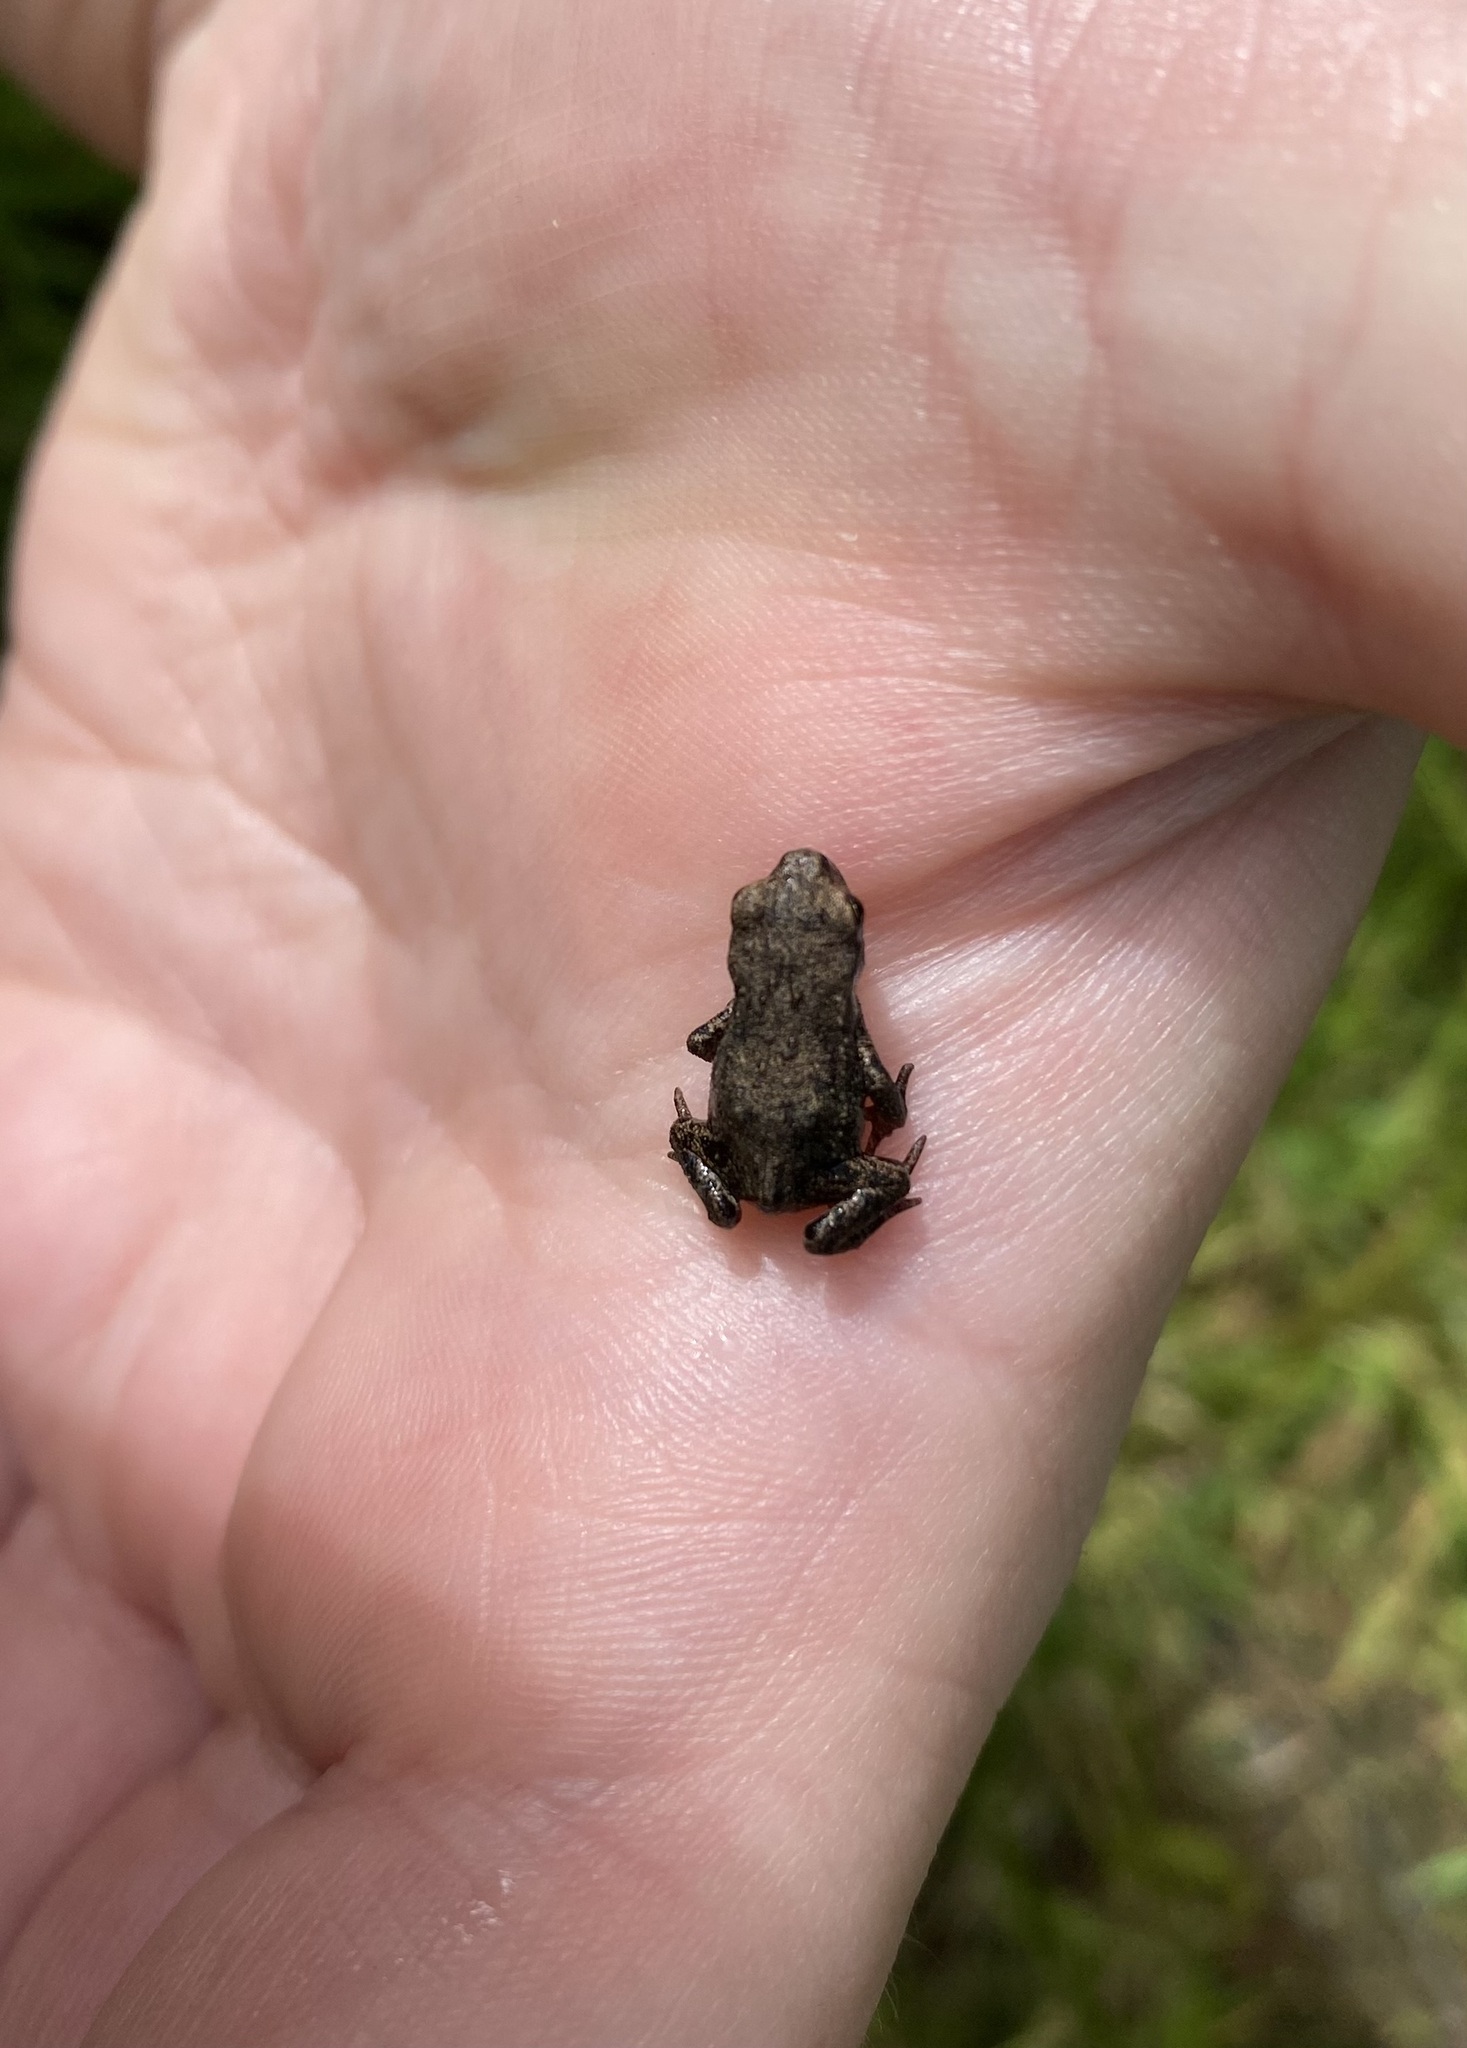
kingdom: Animalia
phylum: Chordata
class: Amphibia
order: Anura
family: Bufonidae
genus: Bufo
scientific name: Bufo bufo
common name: Common toad
